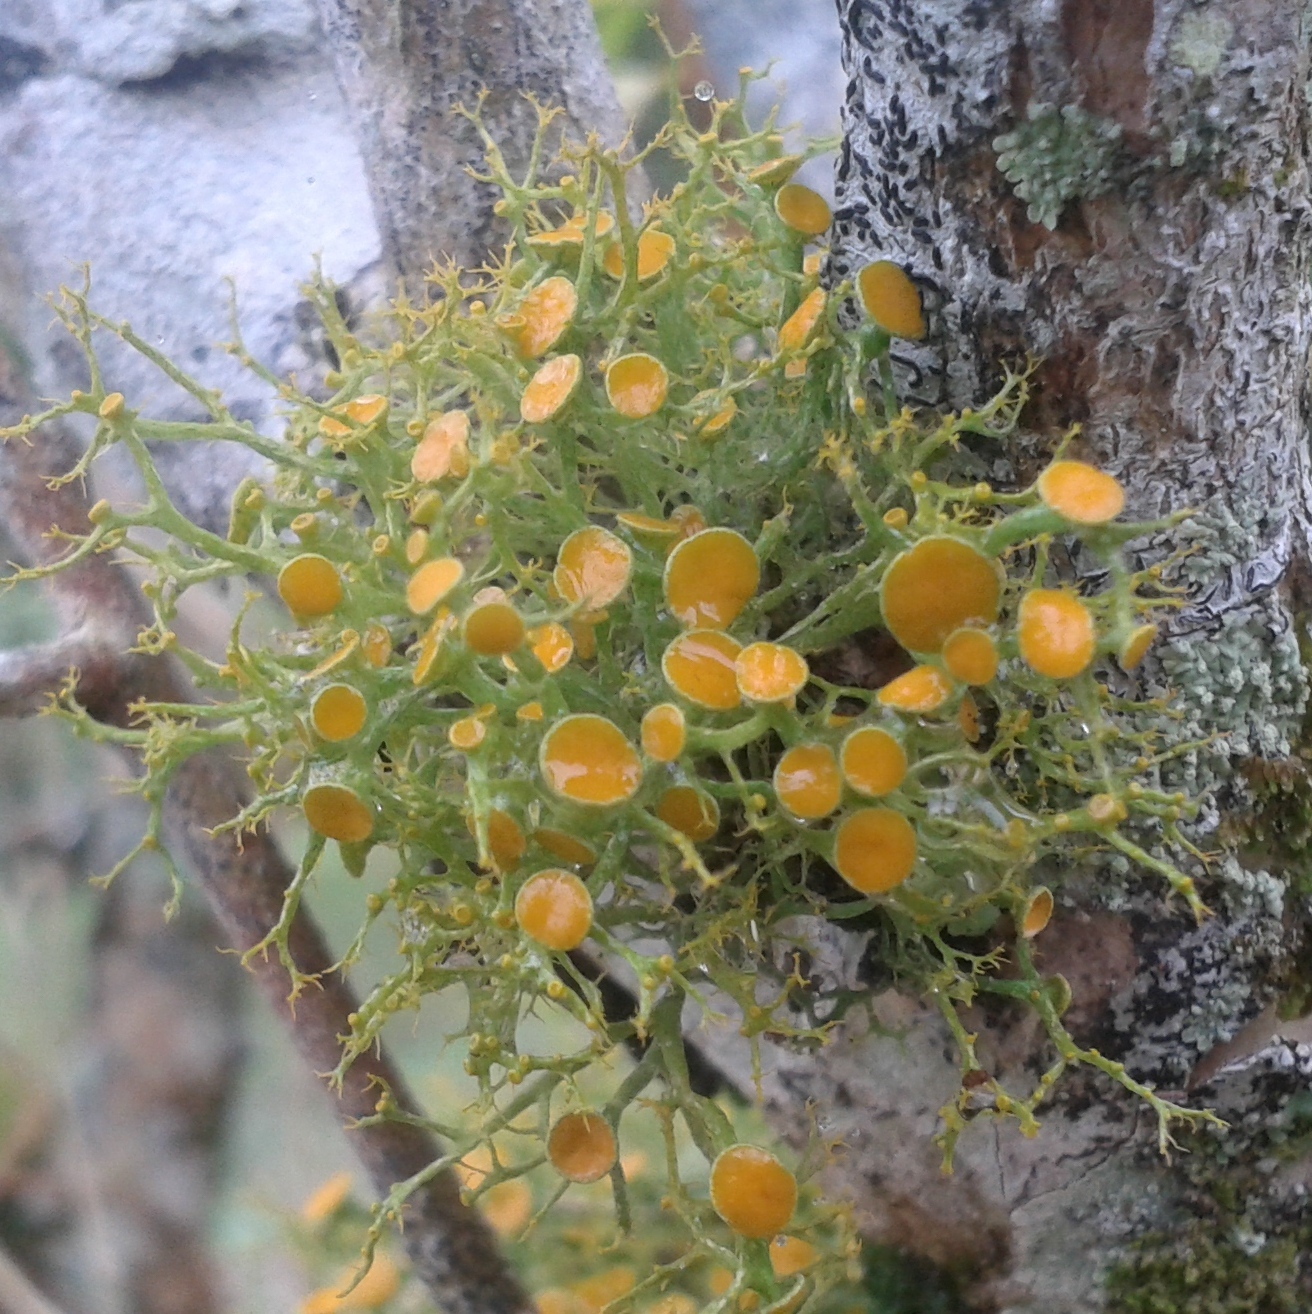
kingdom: Fungi
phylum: Ascomycota
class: Lecanoromycetes
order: Teloschistales
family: Teloschistaceae
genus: Teloschistes
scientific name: Teloschistes exilis
